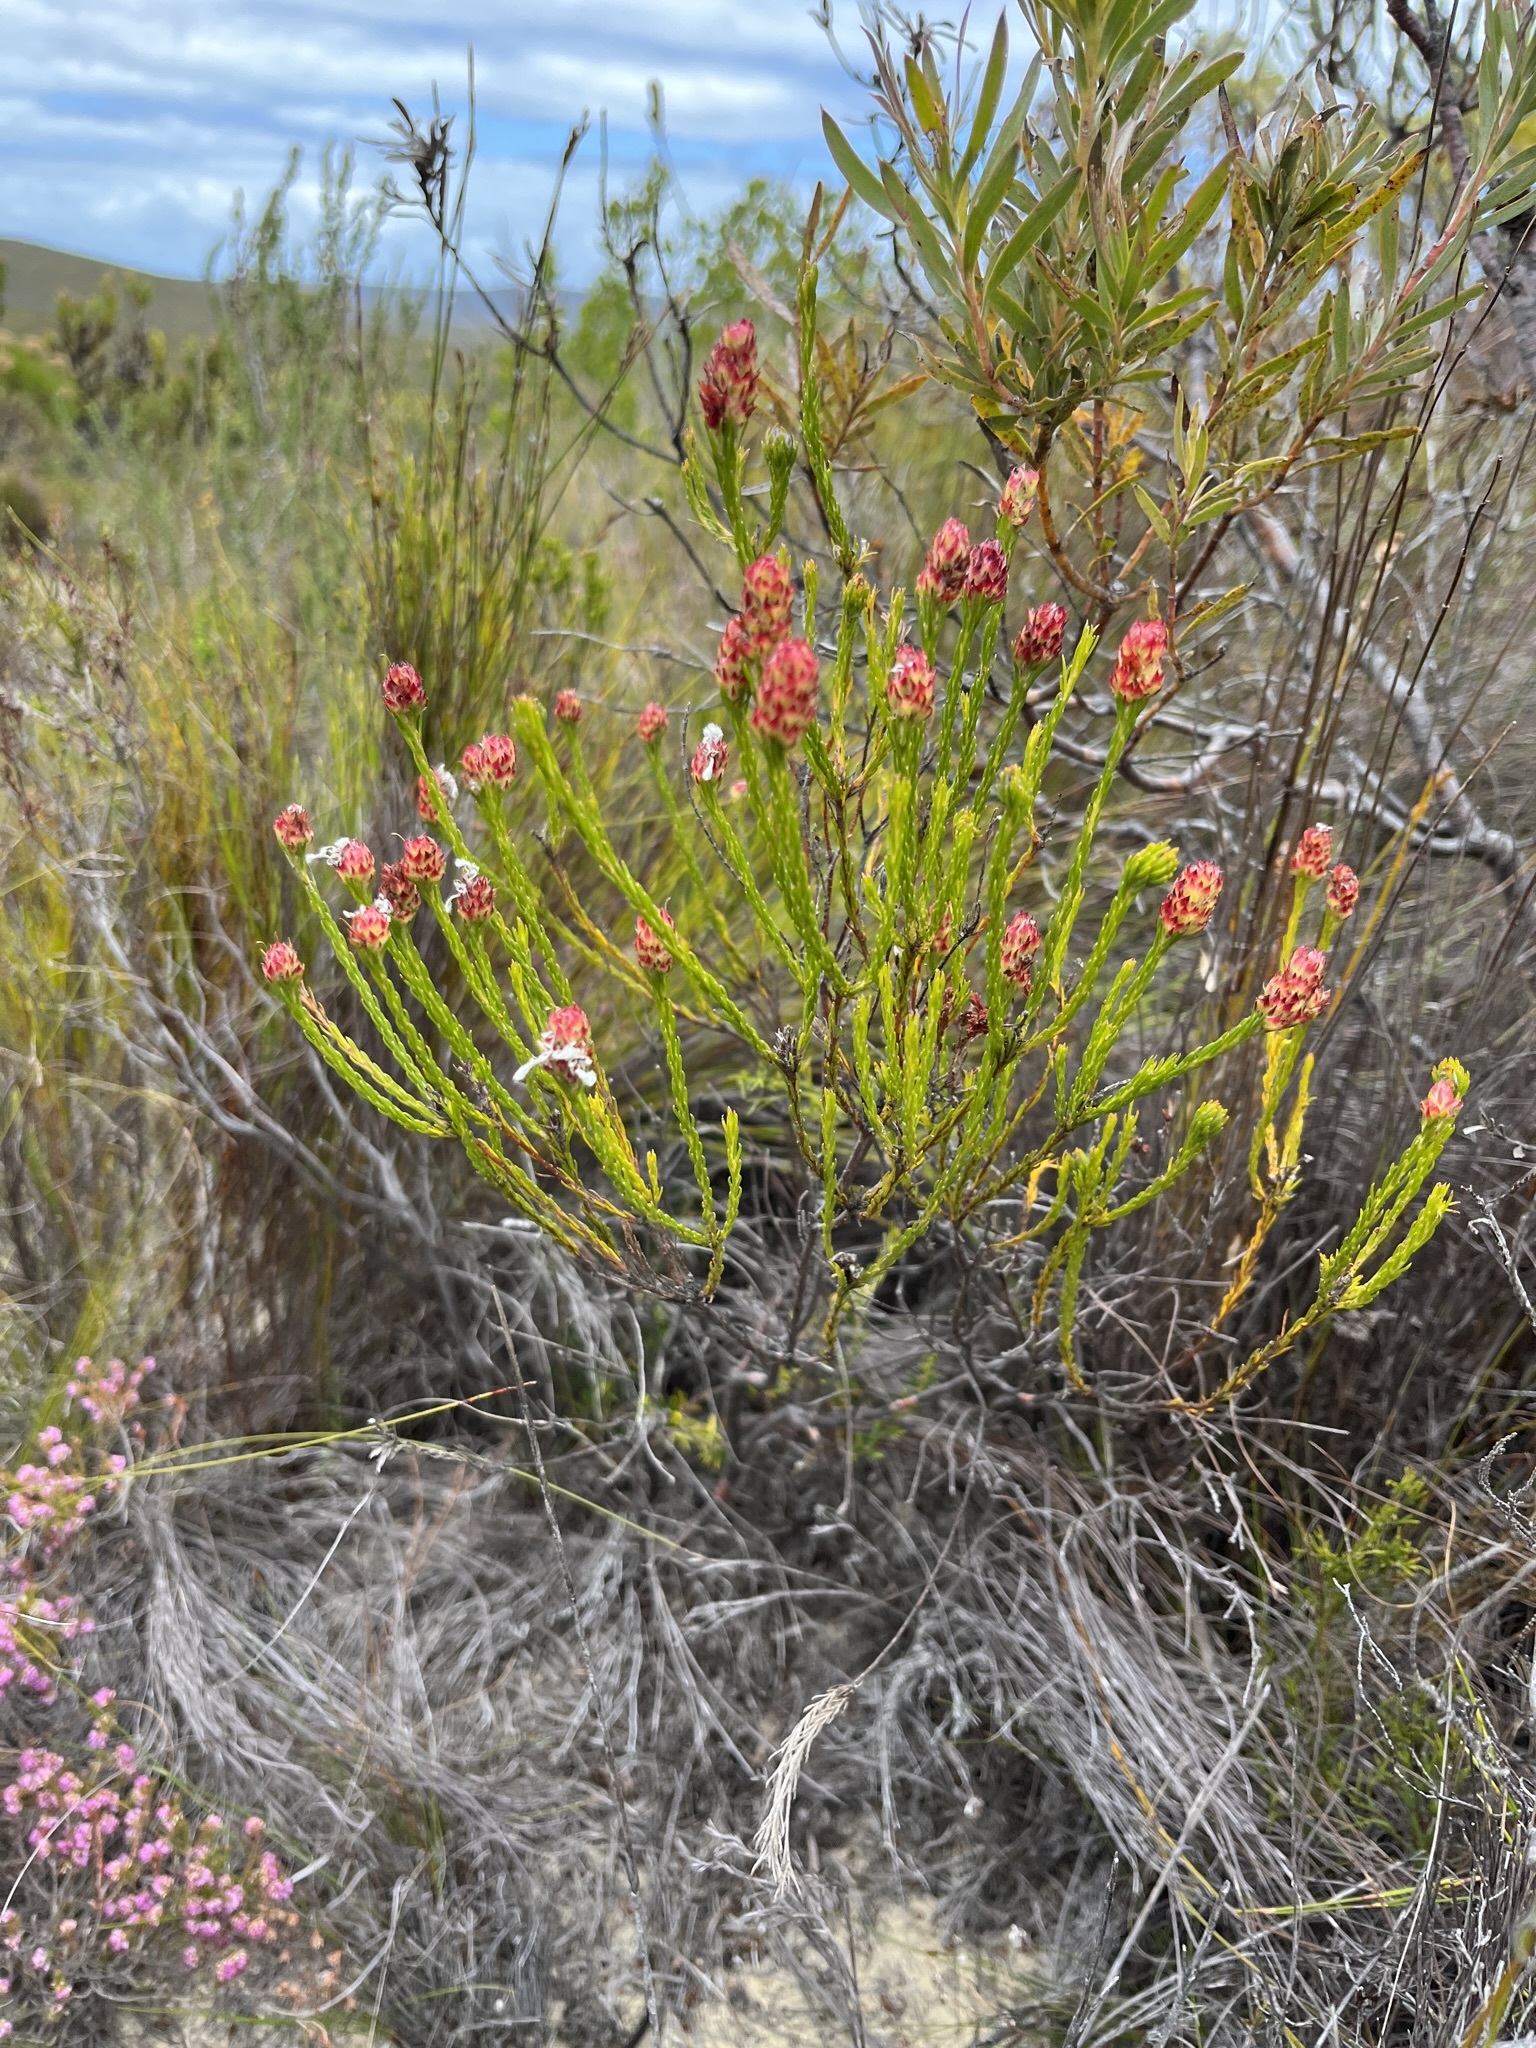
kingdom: Plantae
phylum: Tracheophyta
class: Magnoliopsida
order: Proteales
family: Proteaceae
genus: Spatalla
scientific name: Spatalla squamata
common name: Silky spoon
